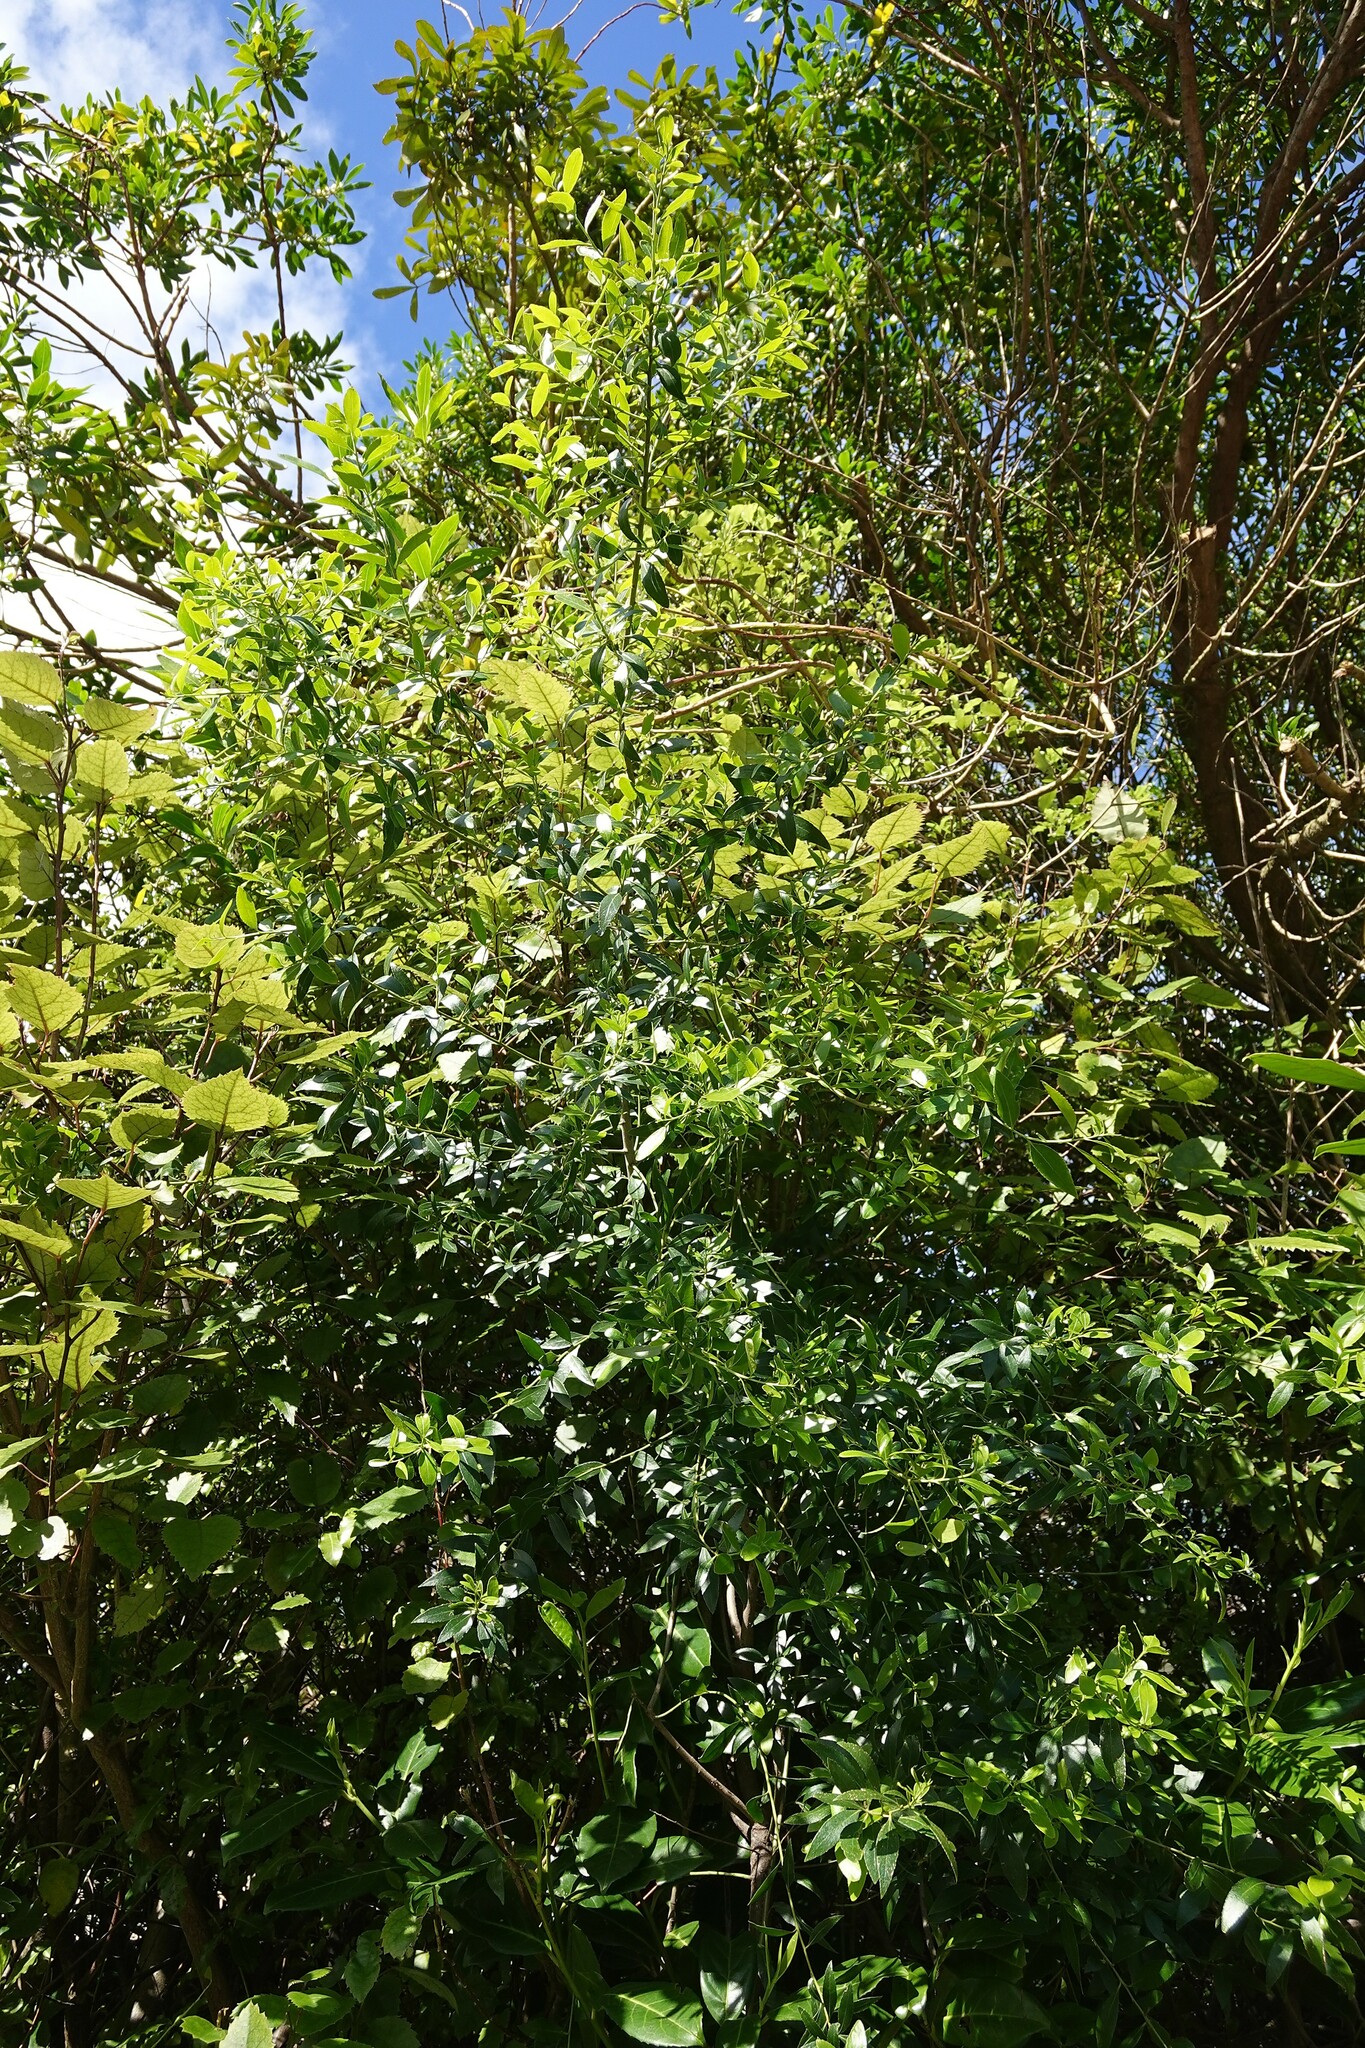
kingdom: Plantae
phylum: Tracheophyta
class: Magnoliopsida
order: Celastrales
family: Celastraceae
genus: Maytenus
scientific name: Maytenus boaria
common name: Mayten
